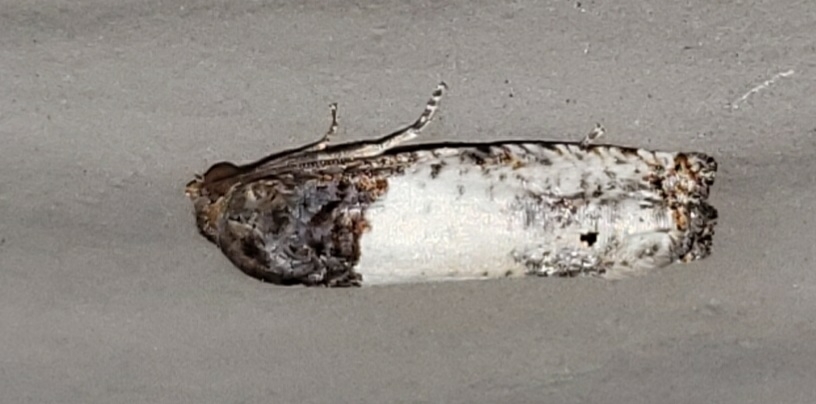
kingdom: Animalia
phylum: Arthropoda
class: Insecta
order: Lepidoptera
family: Tortricidae
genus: Epiblema
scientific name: Epiblema scudderiana
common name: Goldenrod gall moth
